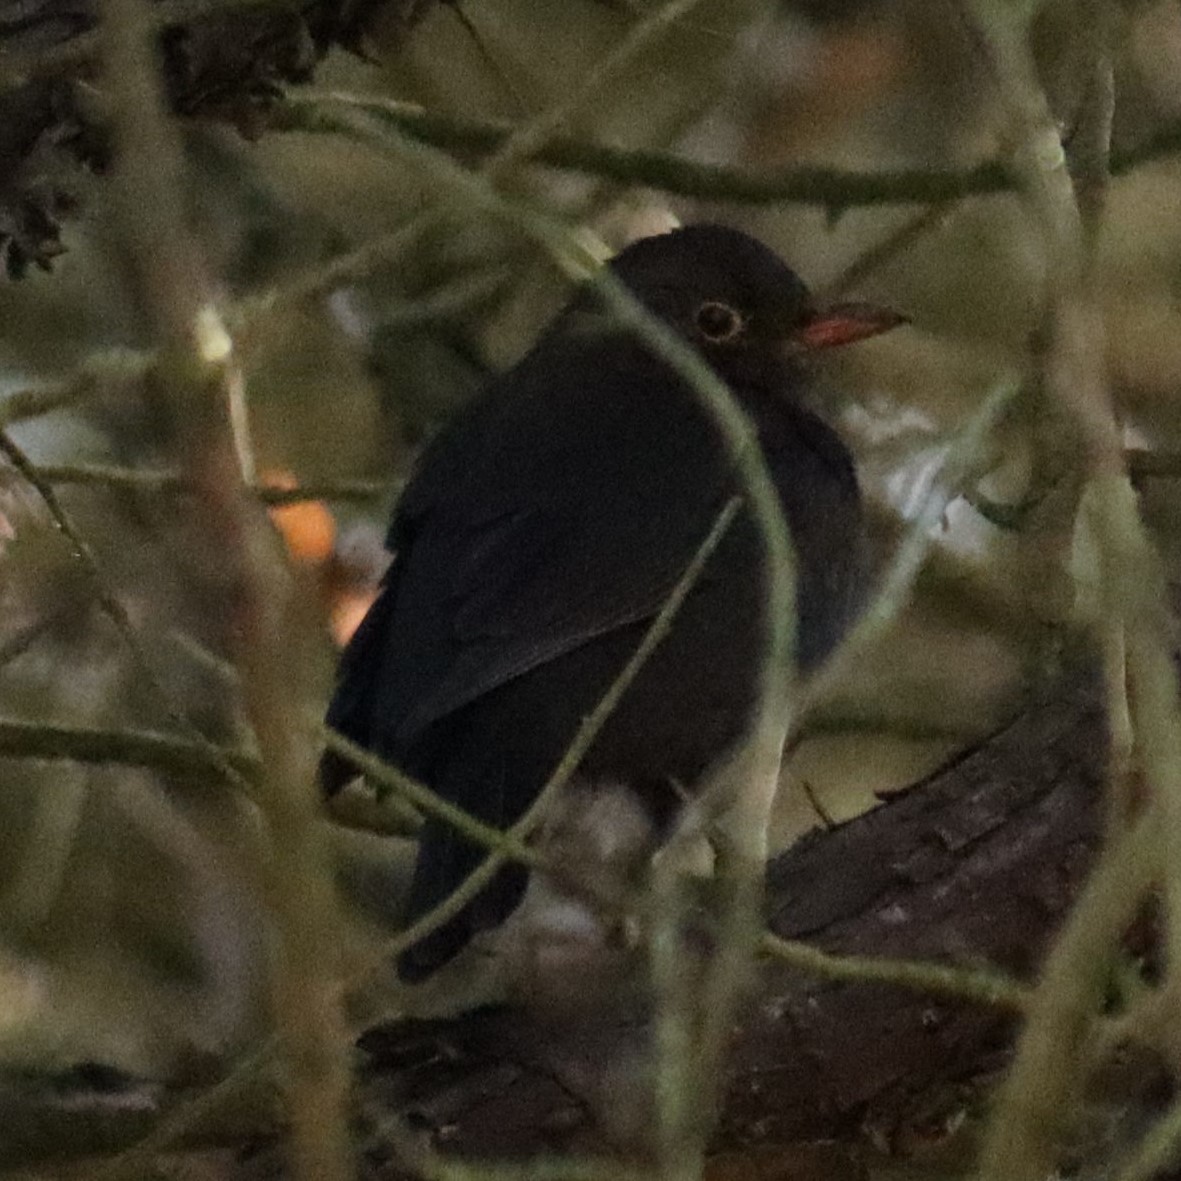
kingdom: Animalia
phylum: Chordata
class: Aves
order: Passeriformes
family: Turdidae
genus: Turdus
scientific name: Turdus merula
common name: Common blackbird
